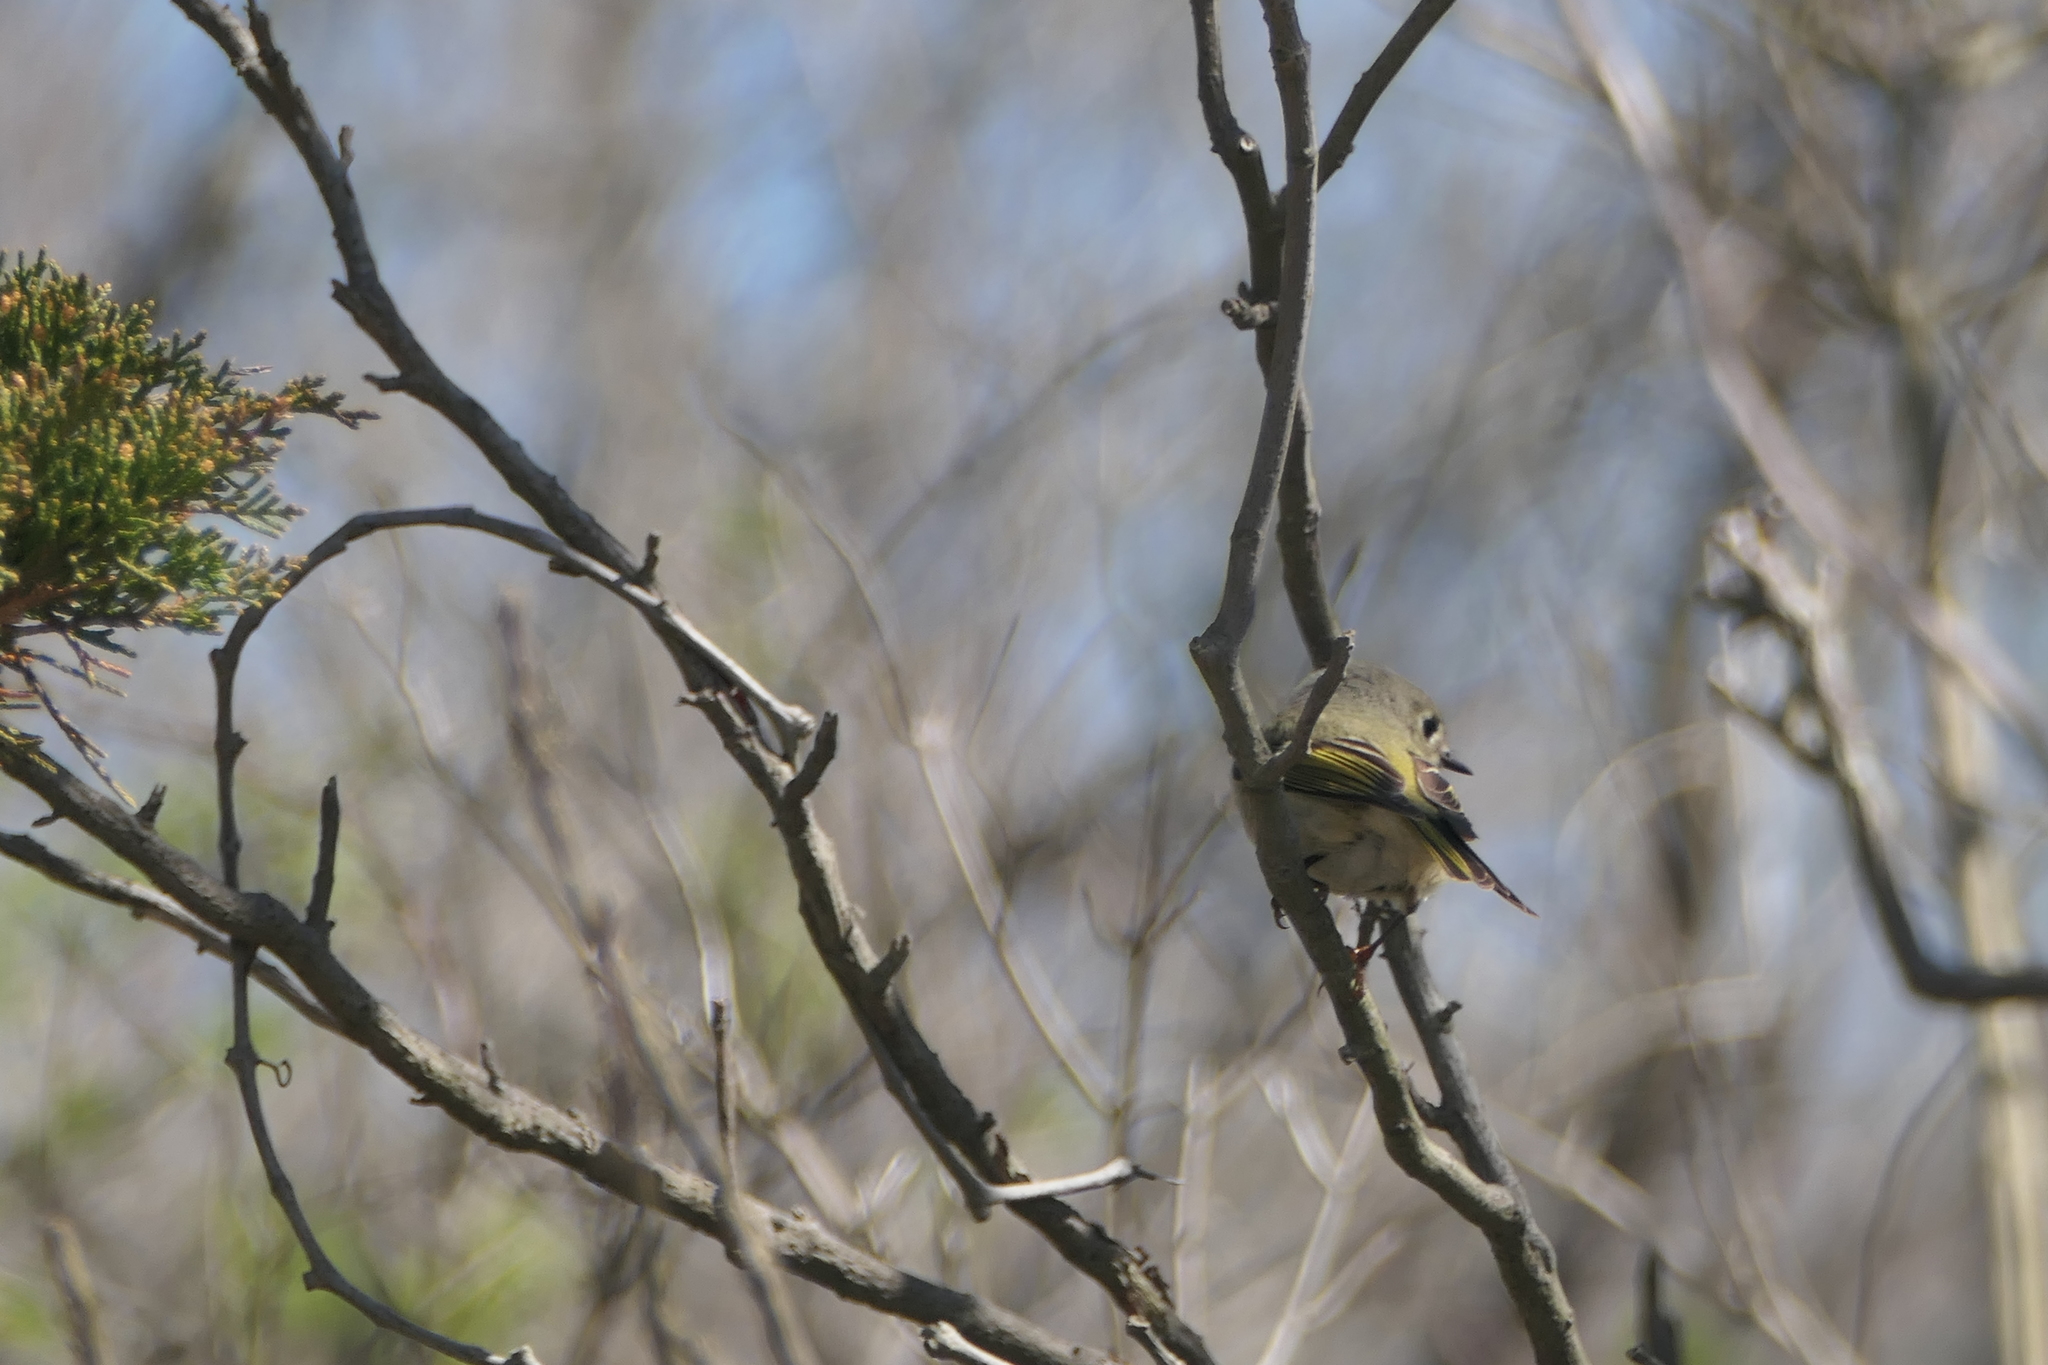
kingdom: Animalia
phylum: Chordata
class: Aves
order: Passeriformes
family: Regulidae
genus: Regulus
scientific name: Regulus calendula
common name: Ruby-crowned kinglet
